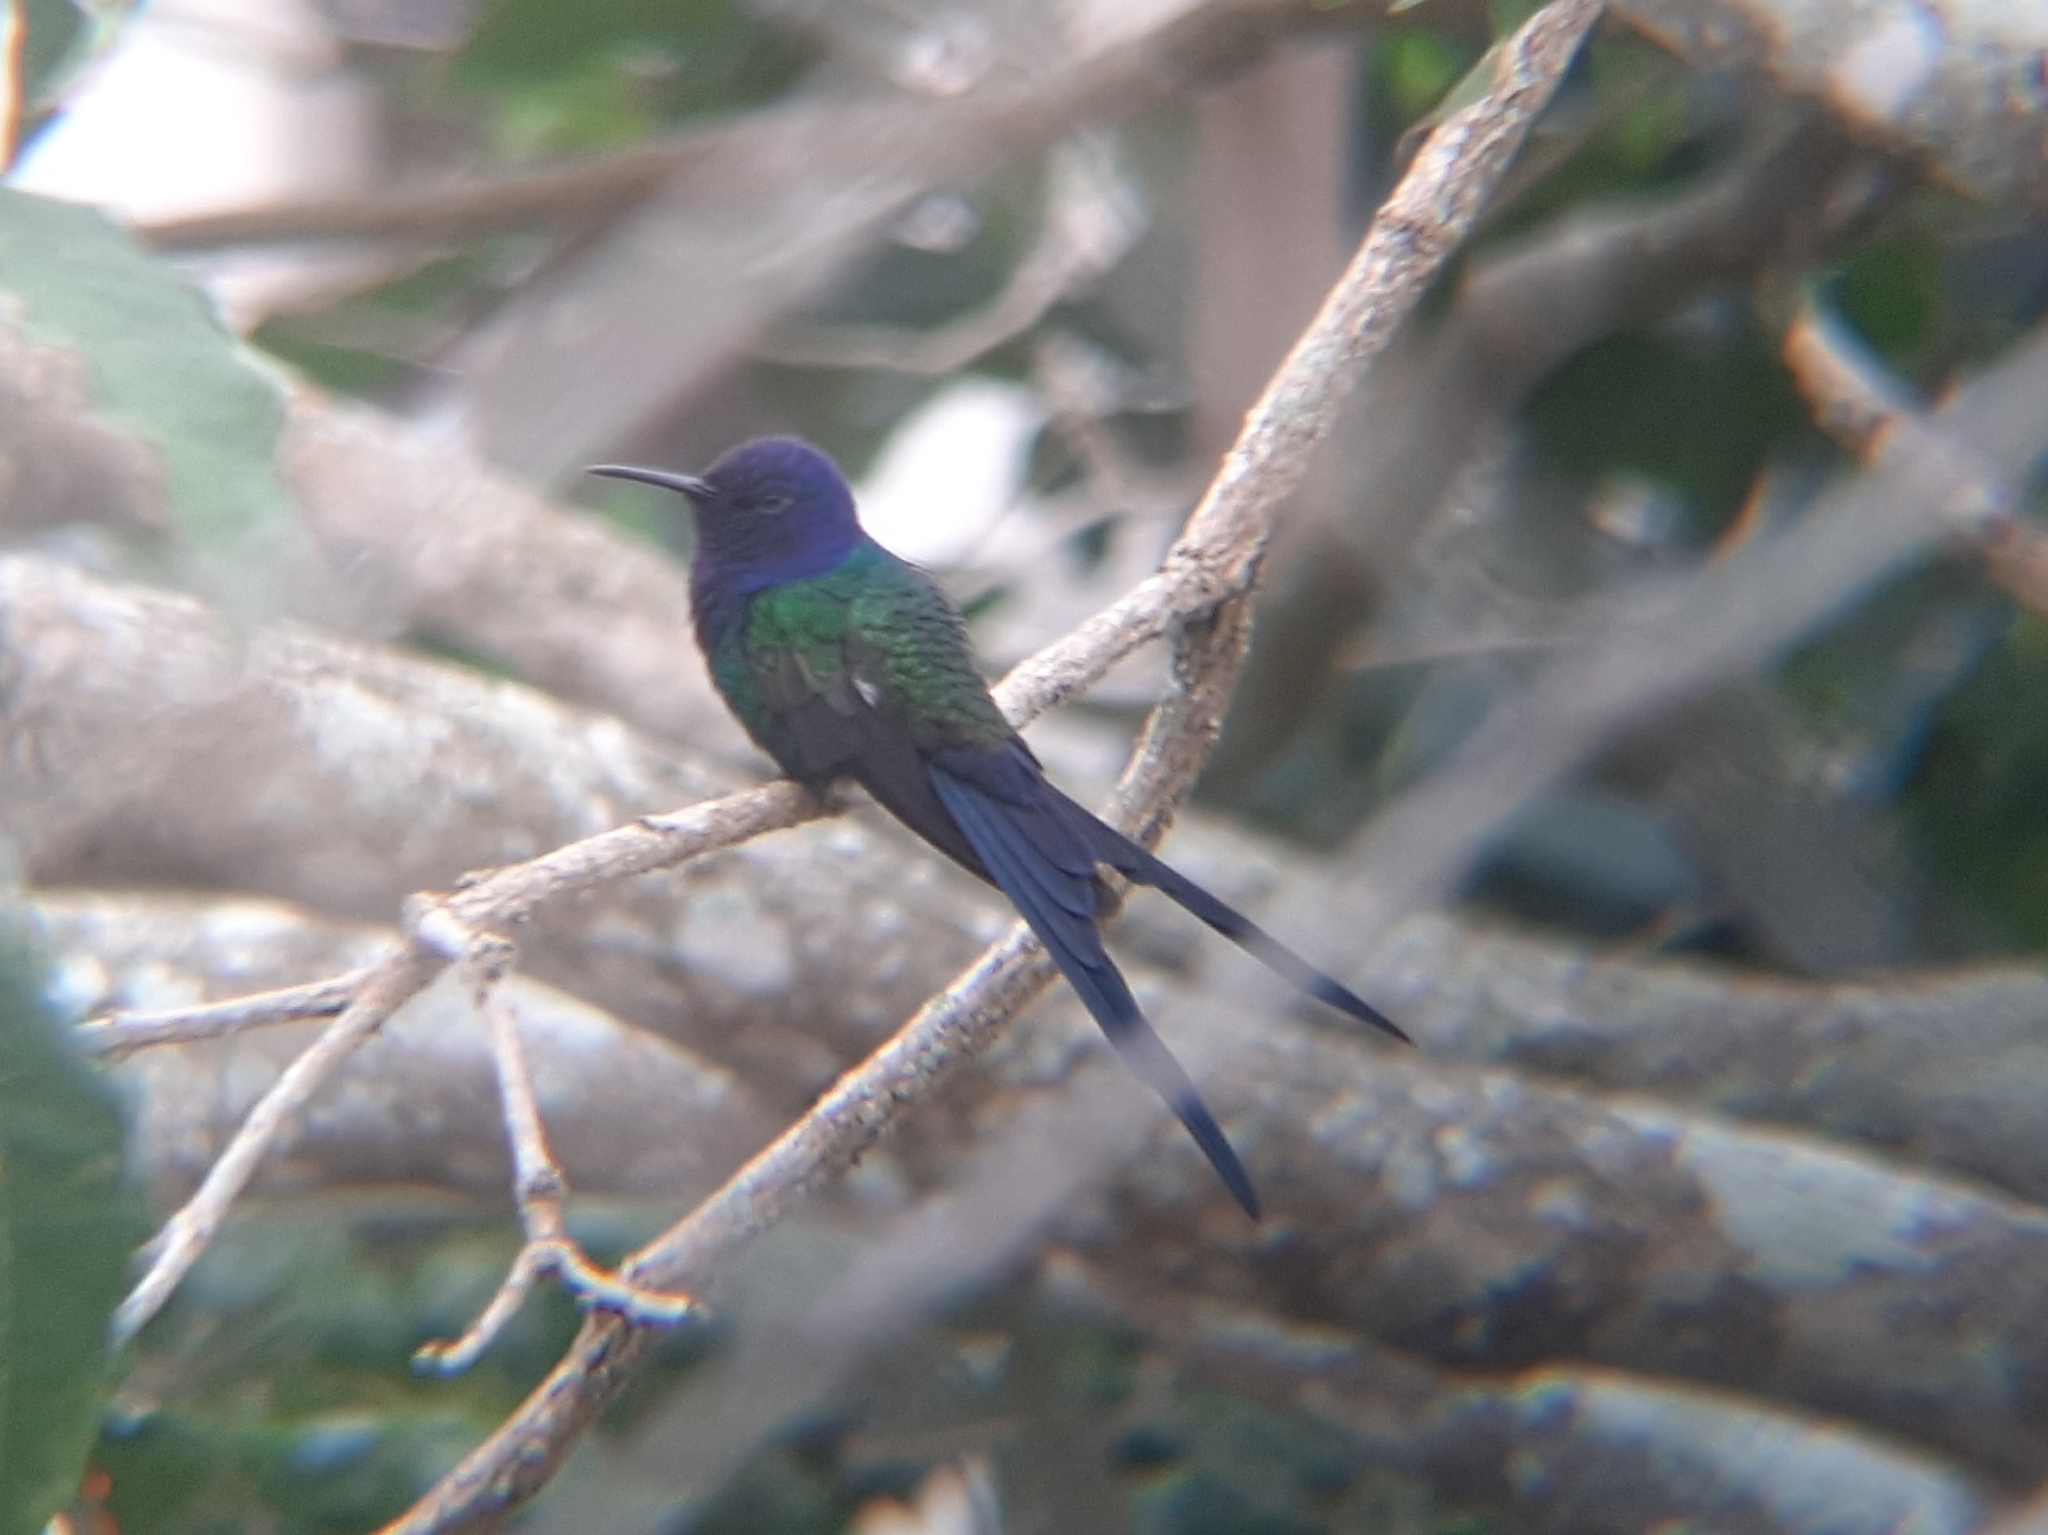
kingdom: Animalia
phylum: Chordata
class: Aves
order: Apodiformes
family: Trochilidae
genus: Eupetomena
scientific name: Eupetomena macroura
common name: Swallow-tailed hummingbird
